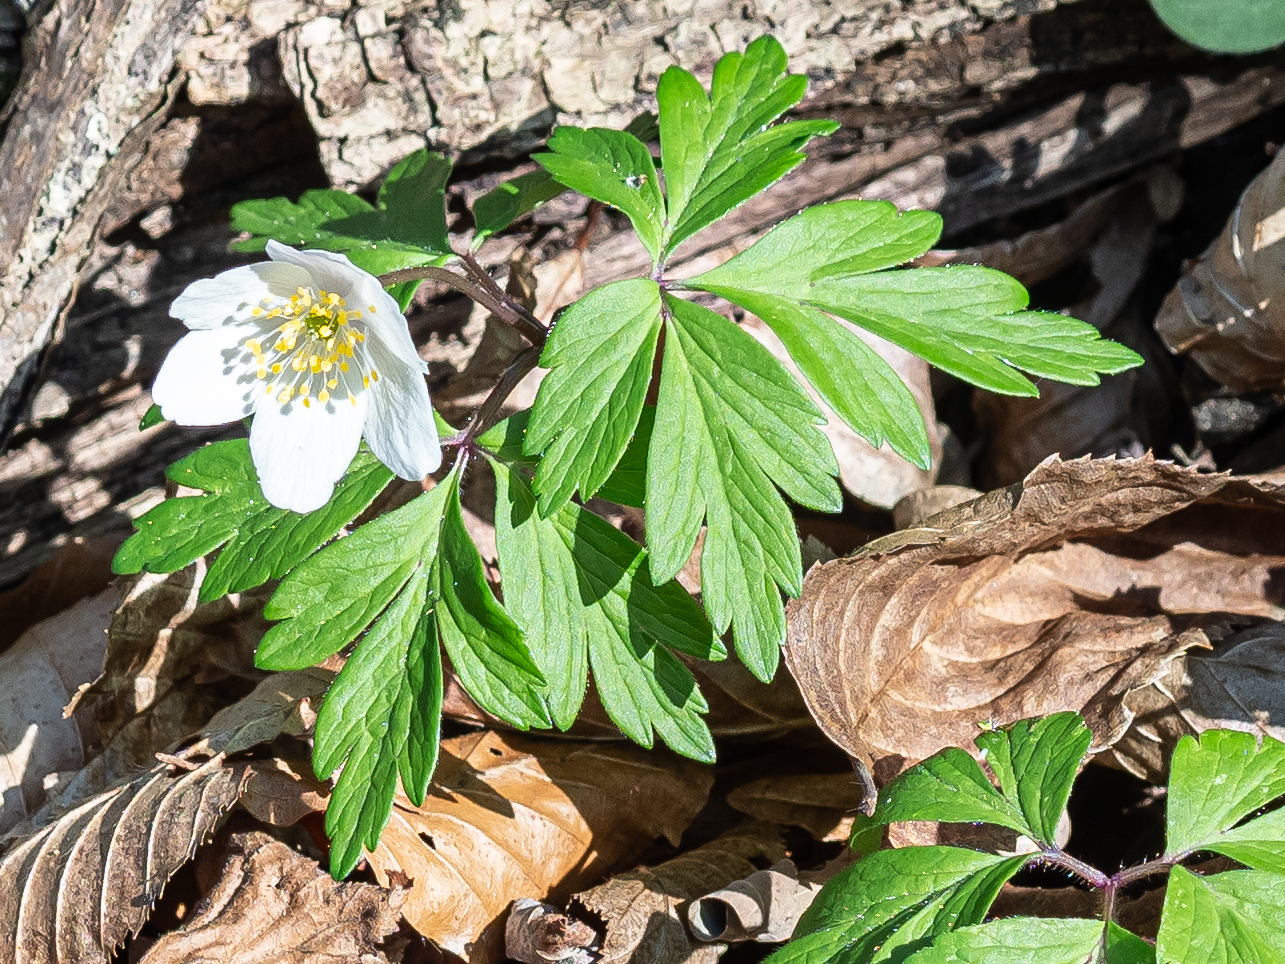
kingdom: Plantae
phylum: Tracheophyta
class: Magnoliopsida
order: Ranunculales
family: Ranunculaceae
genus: Anemone
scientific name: Anemone nemorosa
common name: Wood anemone
